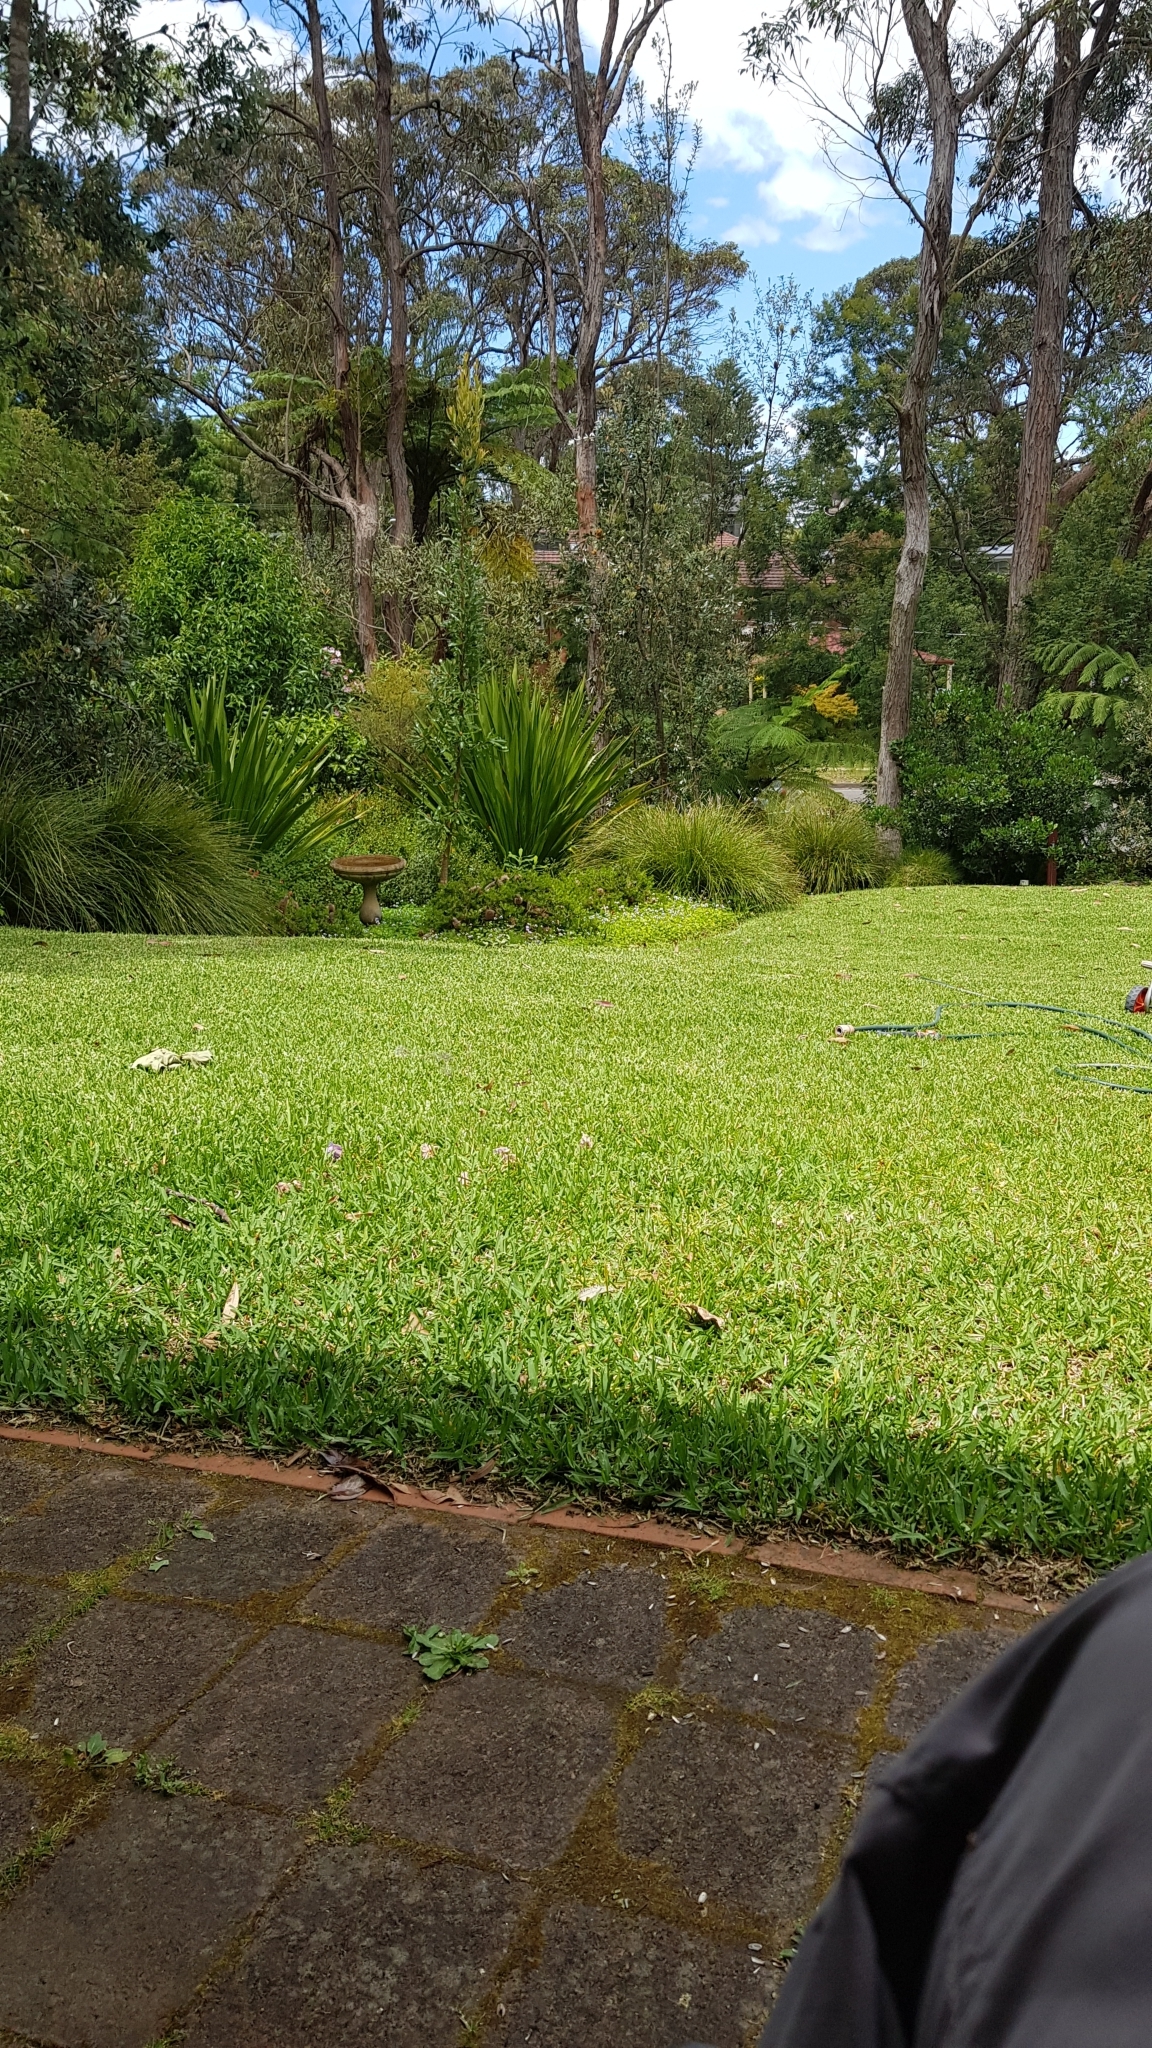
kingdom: Animalia
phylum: Chordata
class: Aves
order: Columbiformes
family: Columbidae
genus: Ocyphaps
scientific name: Ocyphaps lophotes
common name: Crested pigeon
